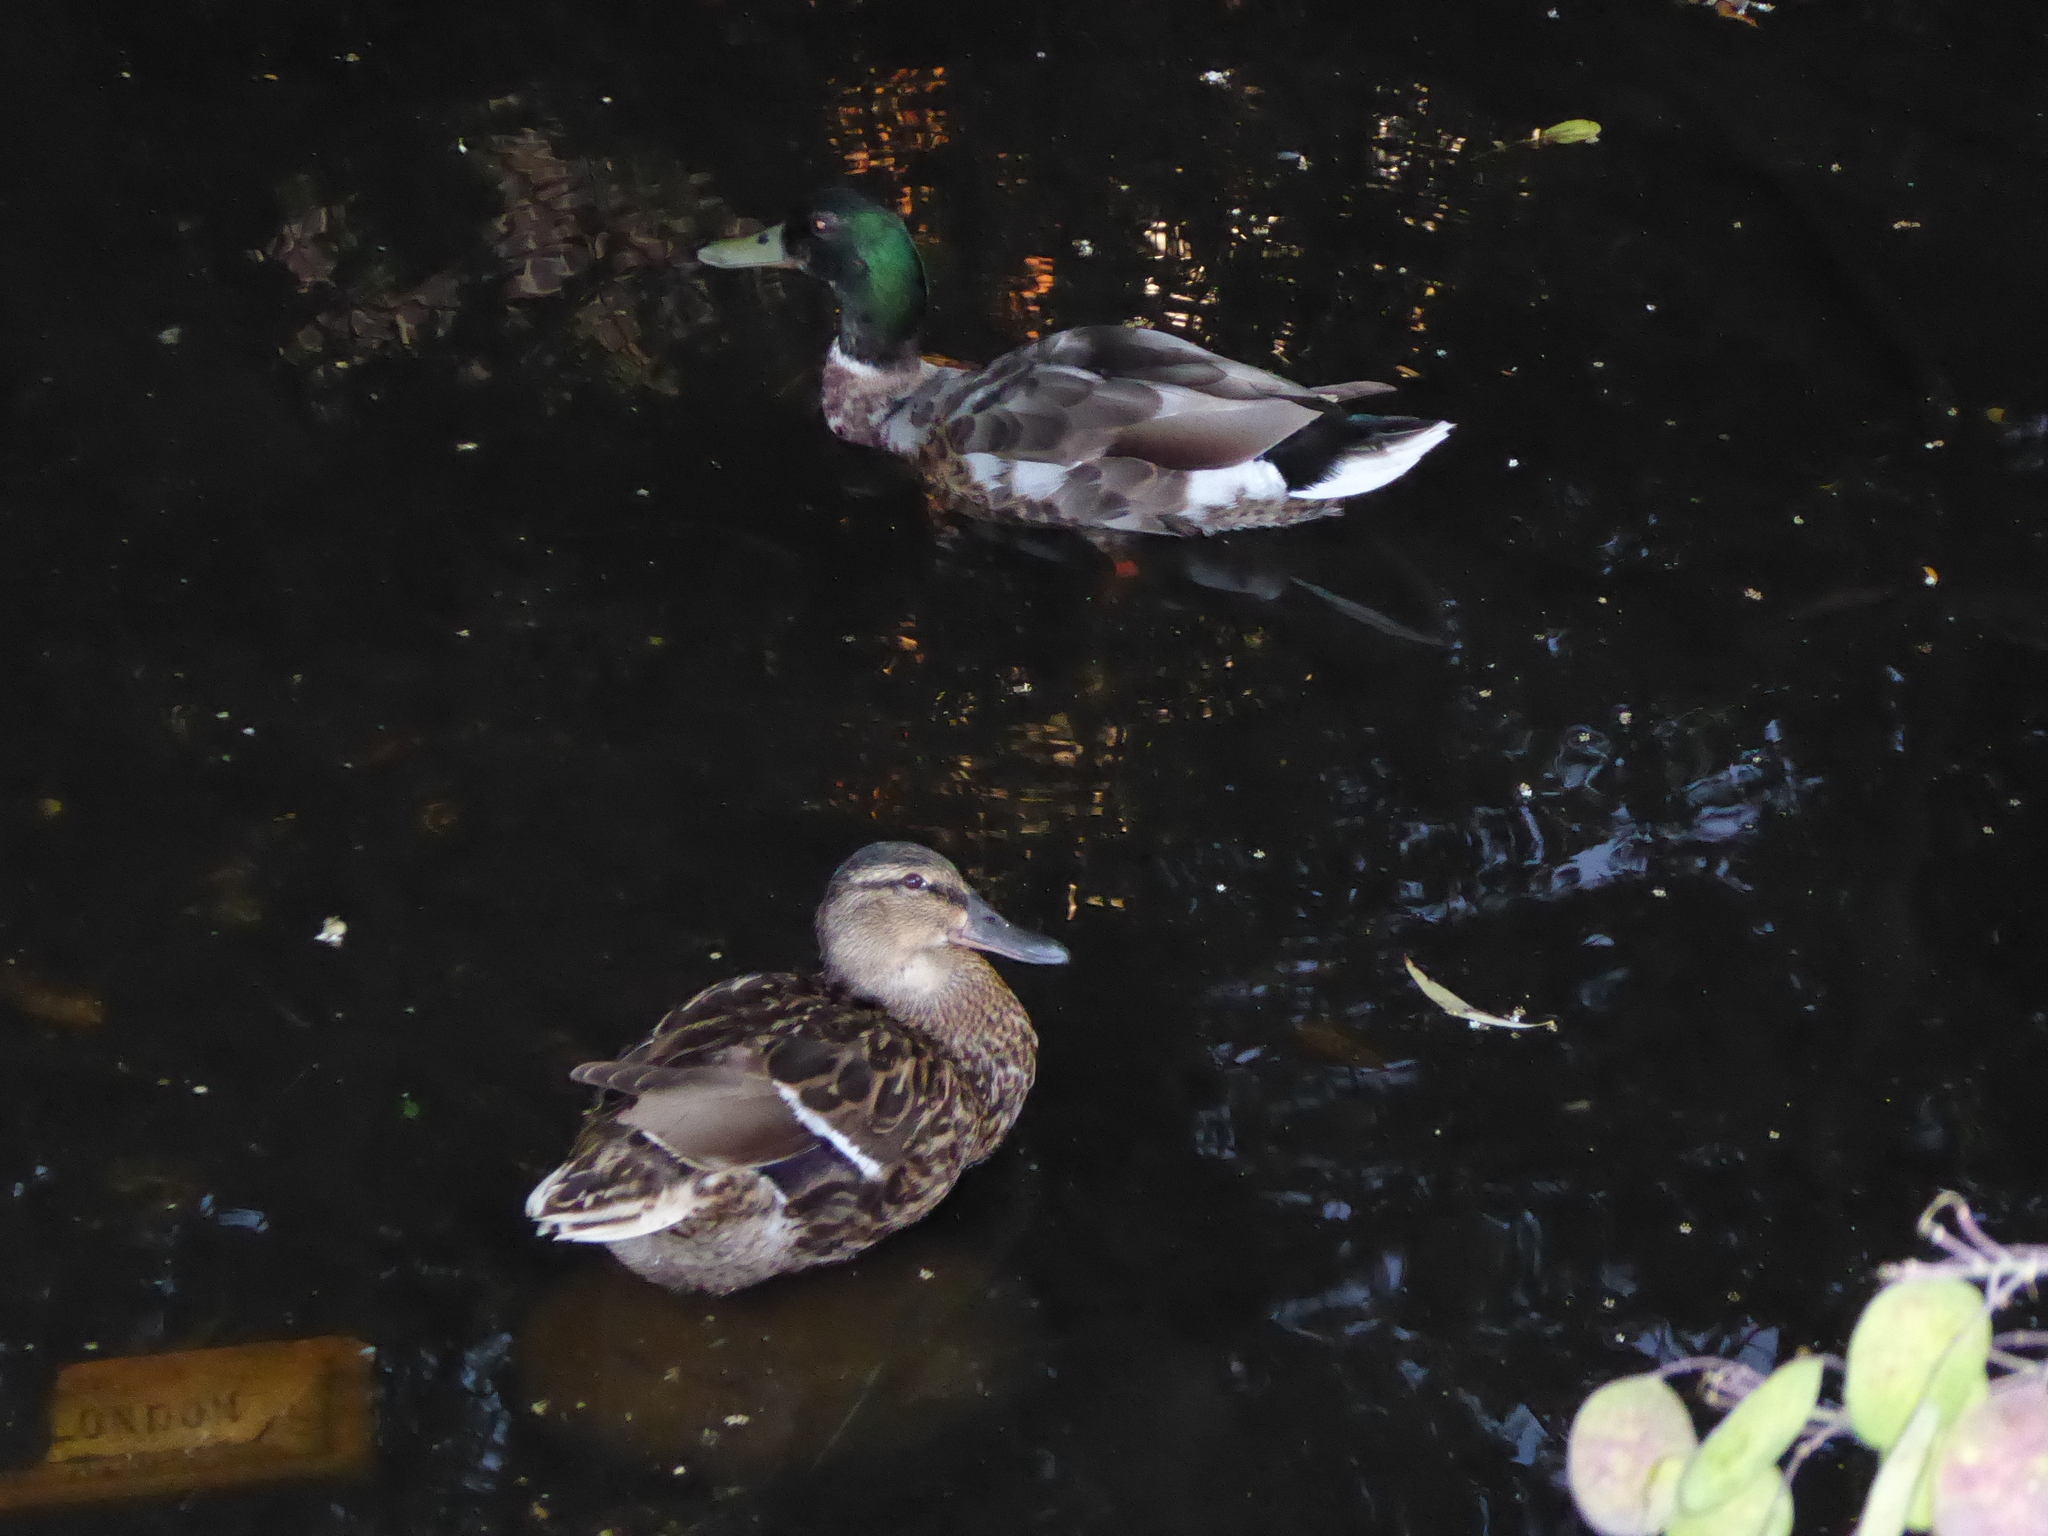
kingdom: Animalia
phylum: Chordata
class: Aves
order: Anseriformes
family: Anatidae
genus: Anas
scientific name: Anas platyrhynchos
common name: Mallard
